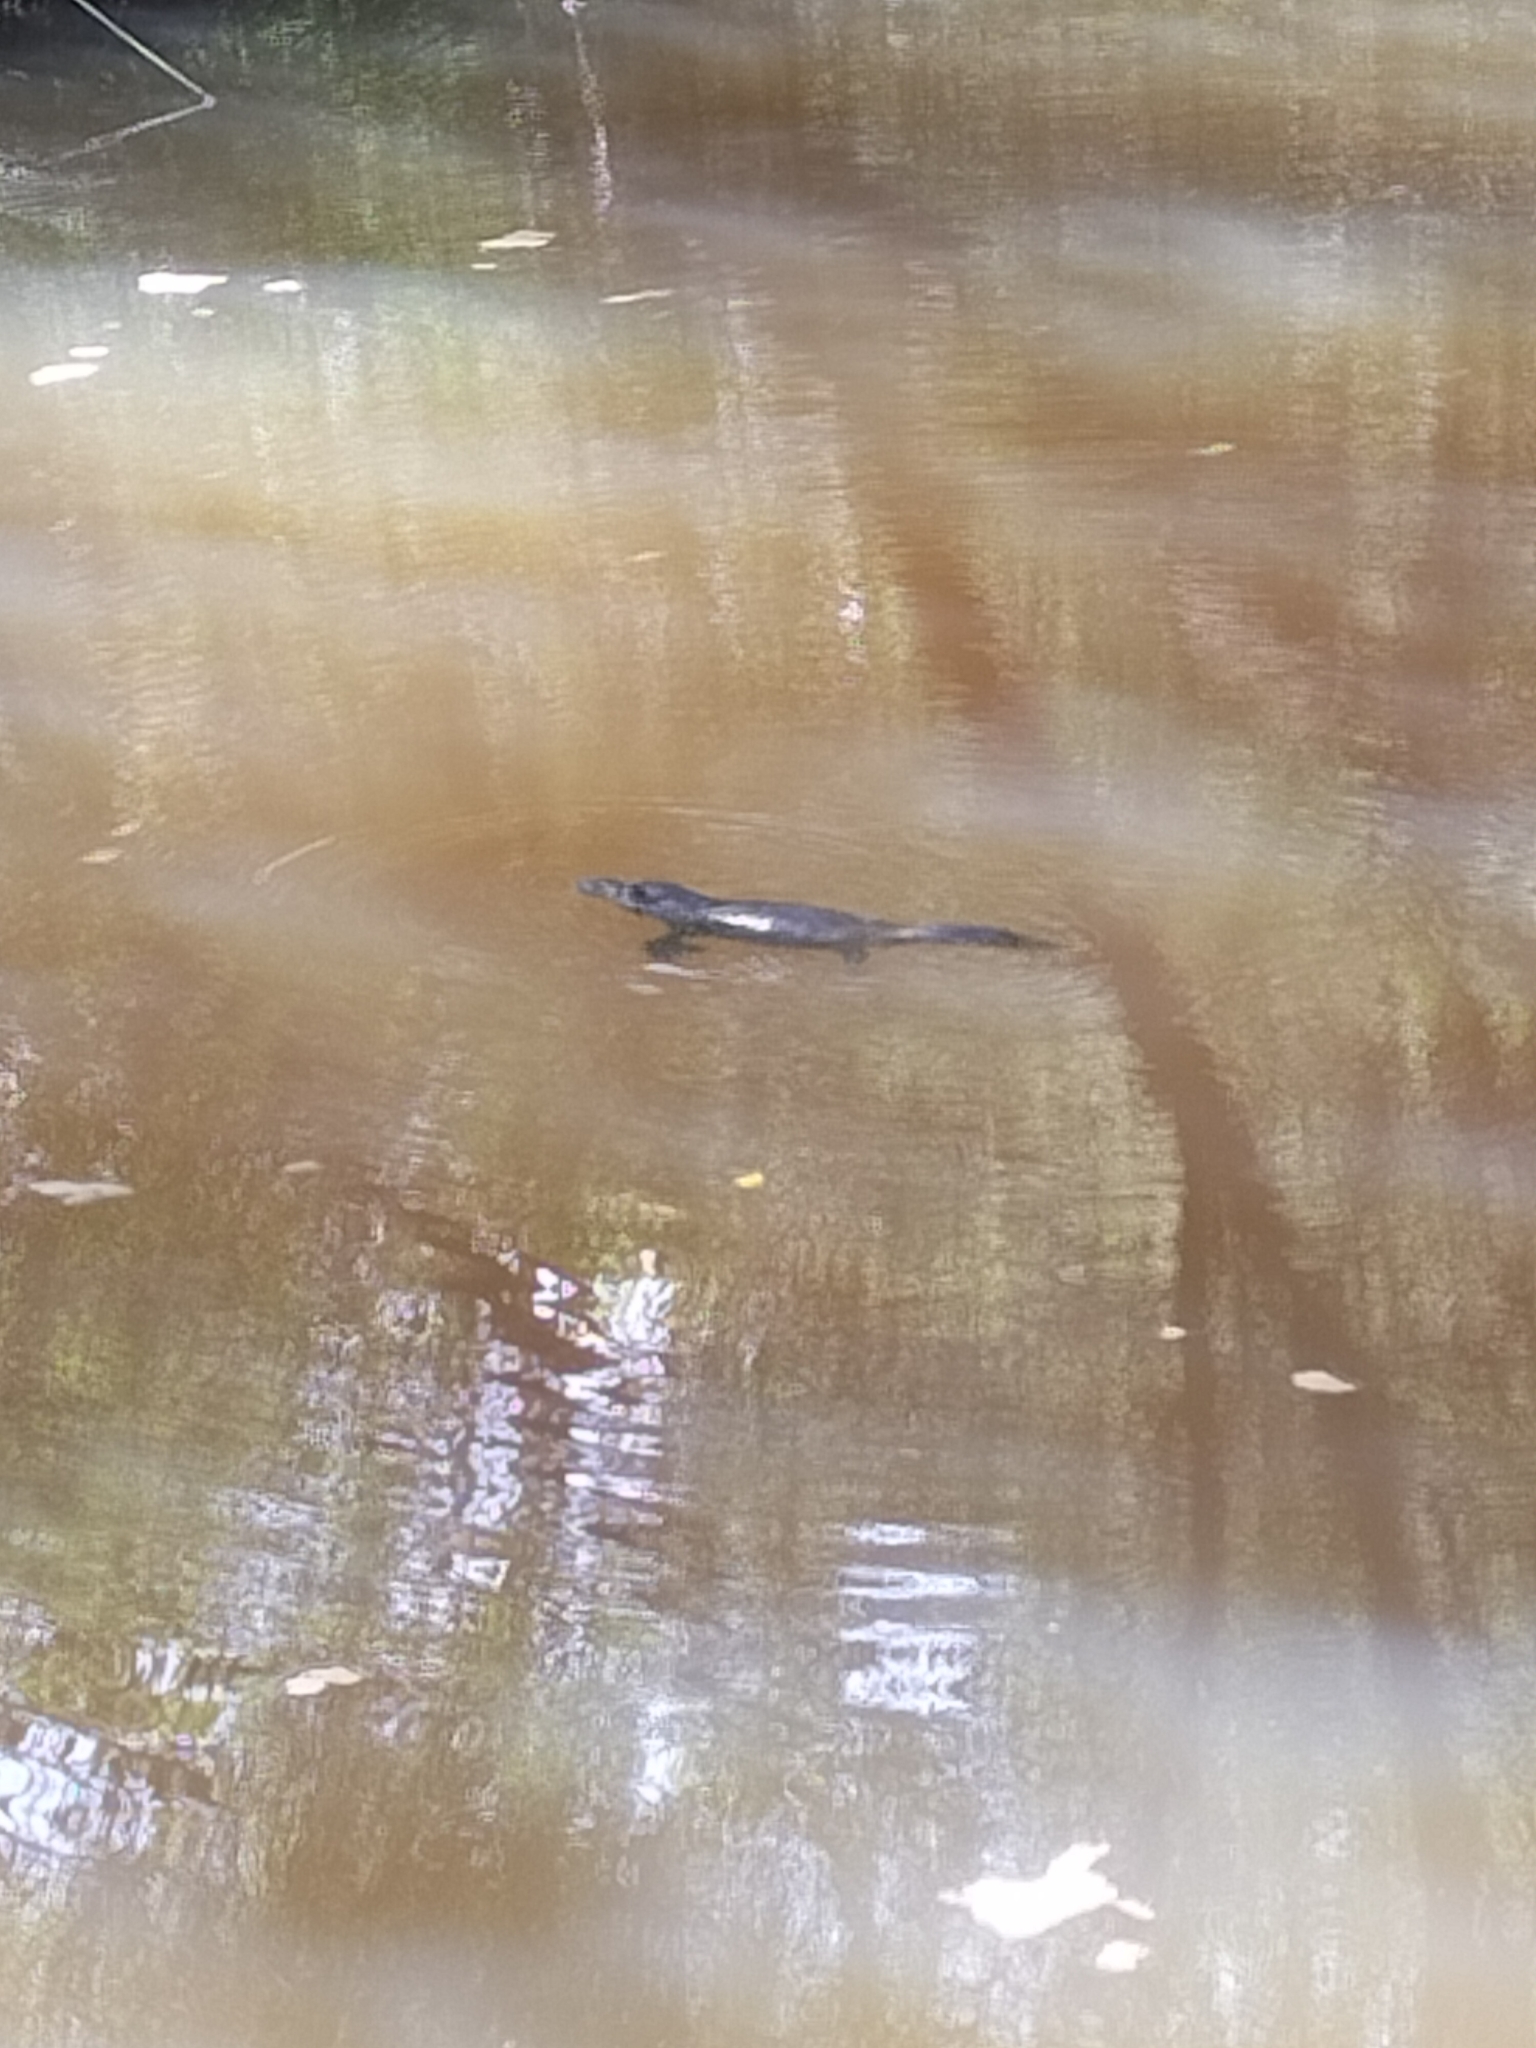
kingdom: Animalia
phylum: Chordata
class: Mammalia
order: Monotremata
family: Ornithorhynchidae
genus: Ornithorhynchus
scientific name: Ornithorhynchus anatinus
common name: Platypus
